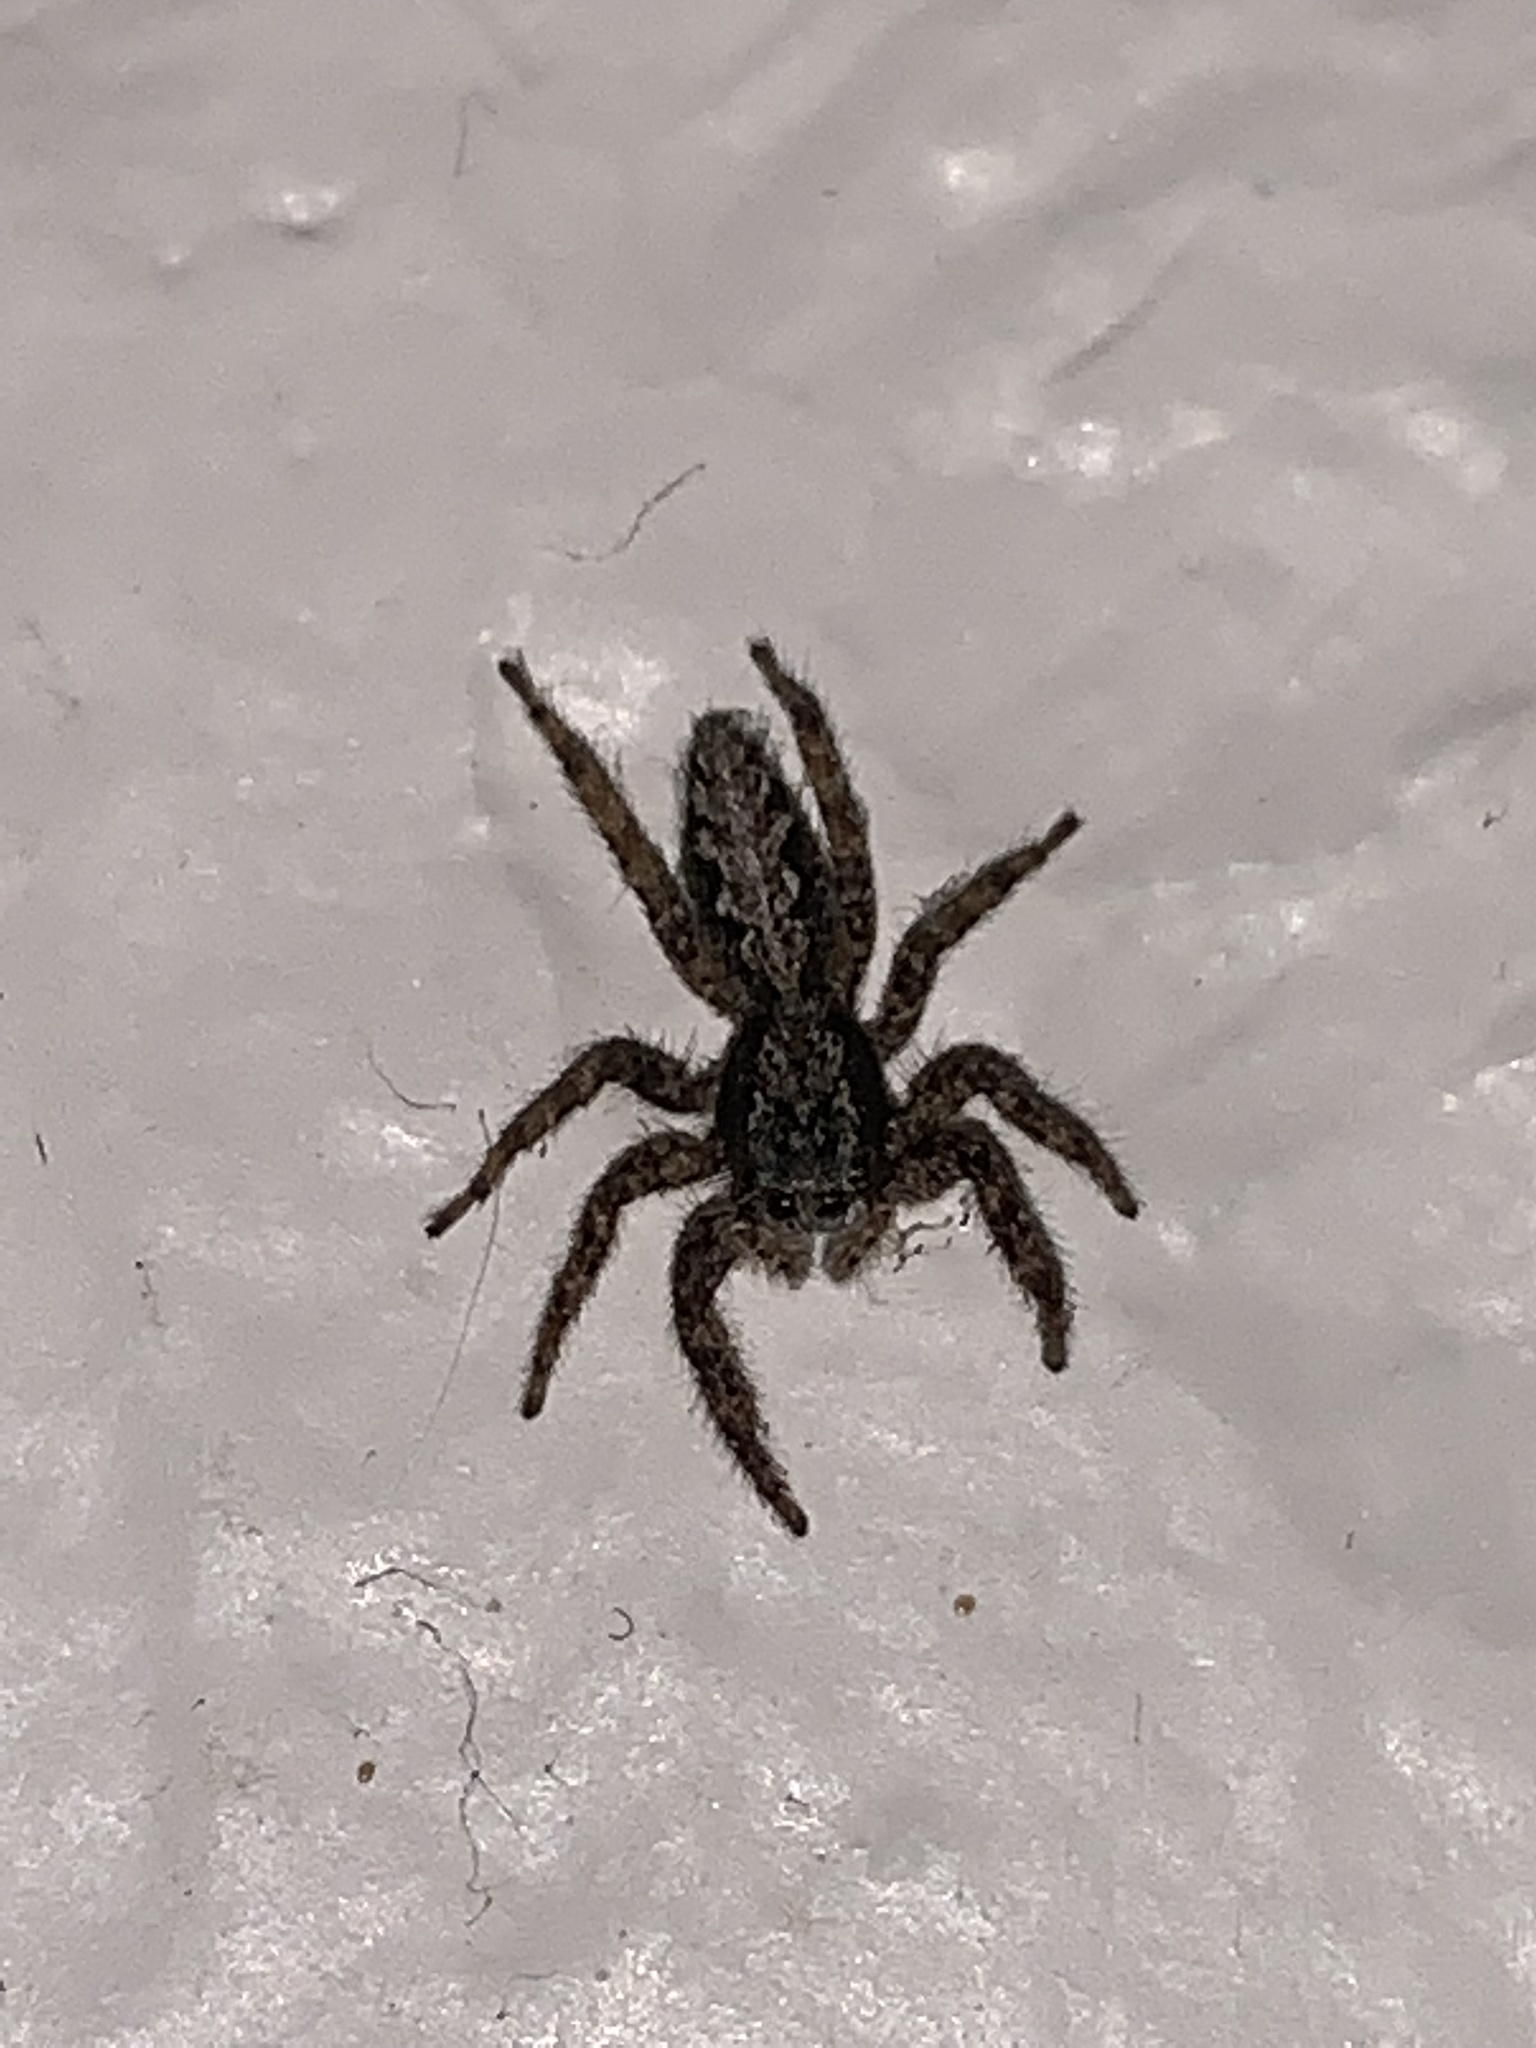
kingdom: Animalia
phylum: Arthropoda
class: Arachnida
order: Araneae
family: Salticidae
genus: Platycryptus
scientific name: Platycryptus californicus
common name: Jumping spiders
